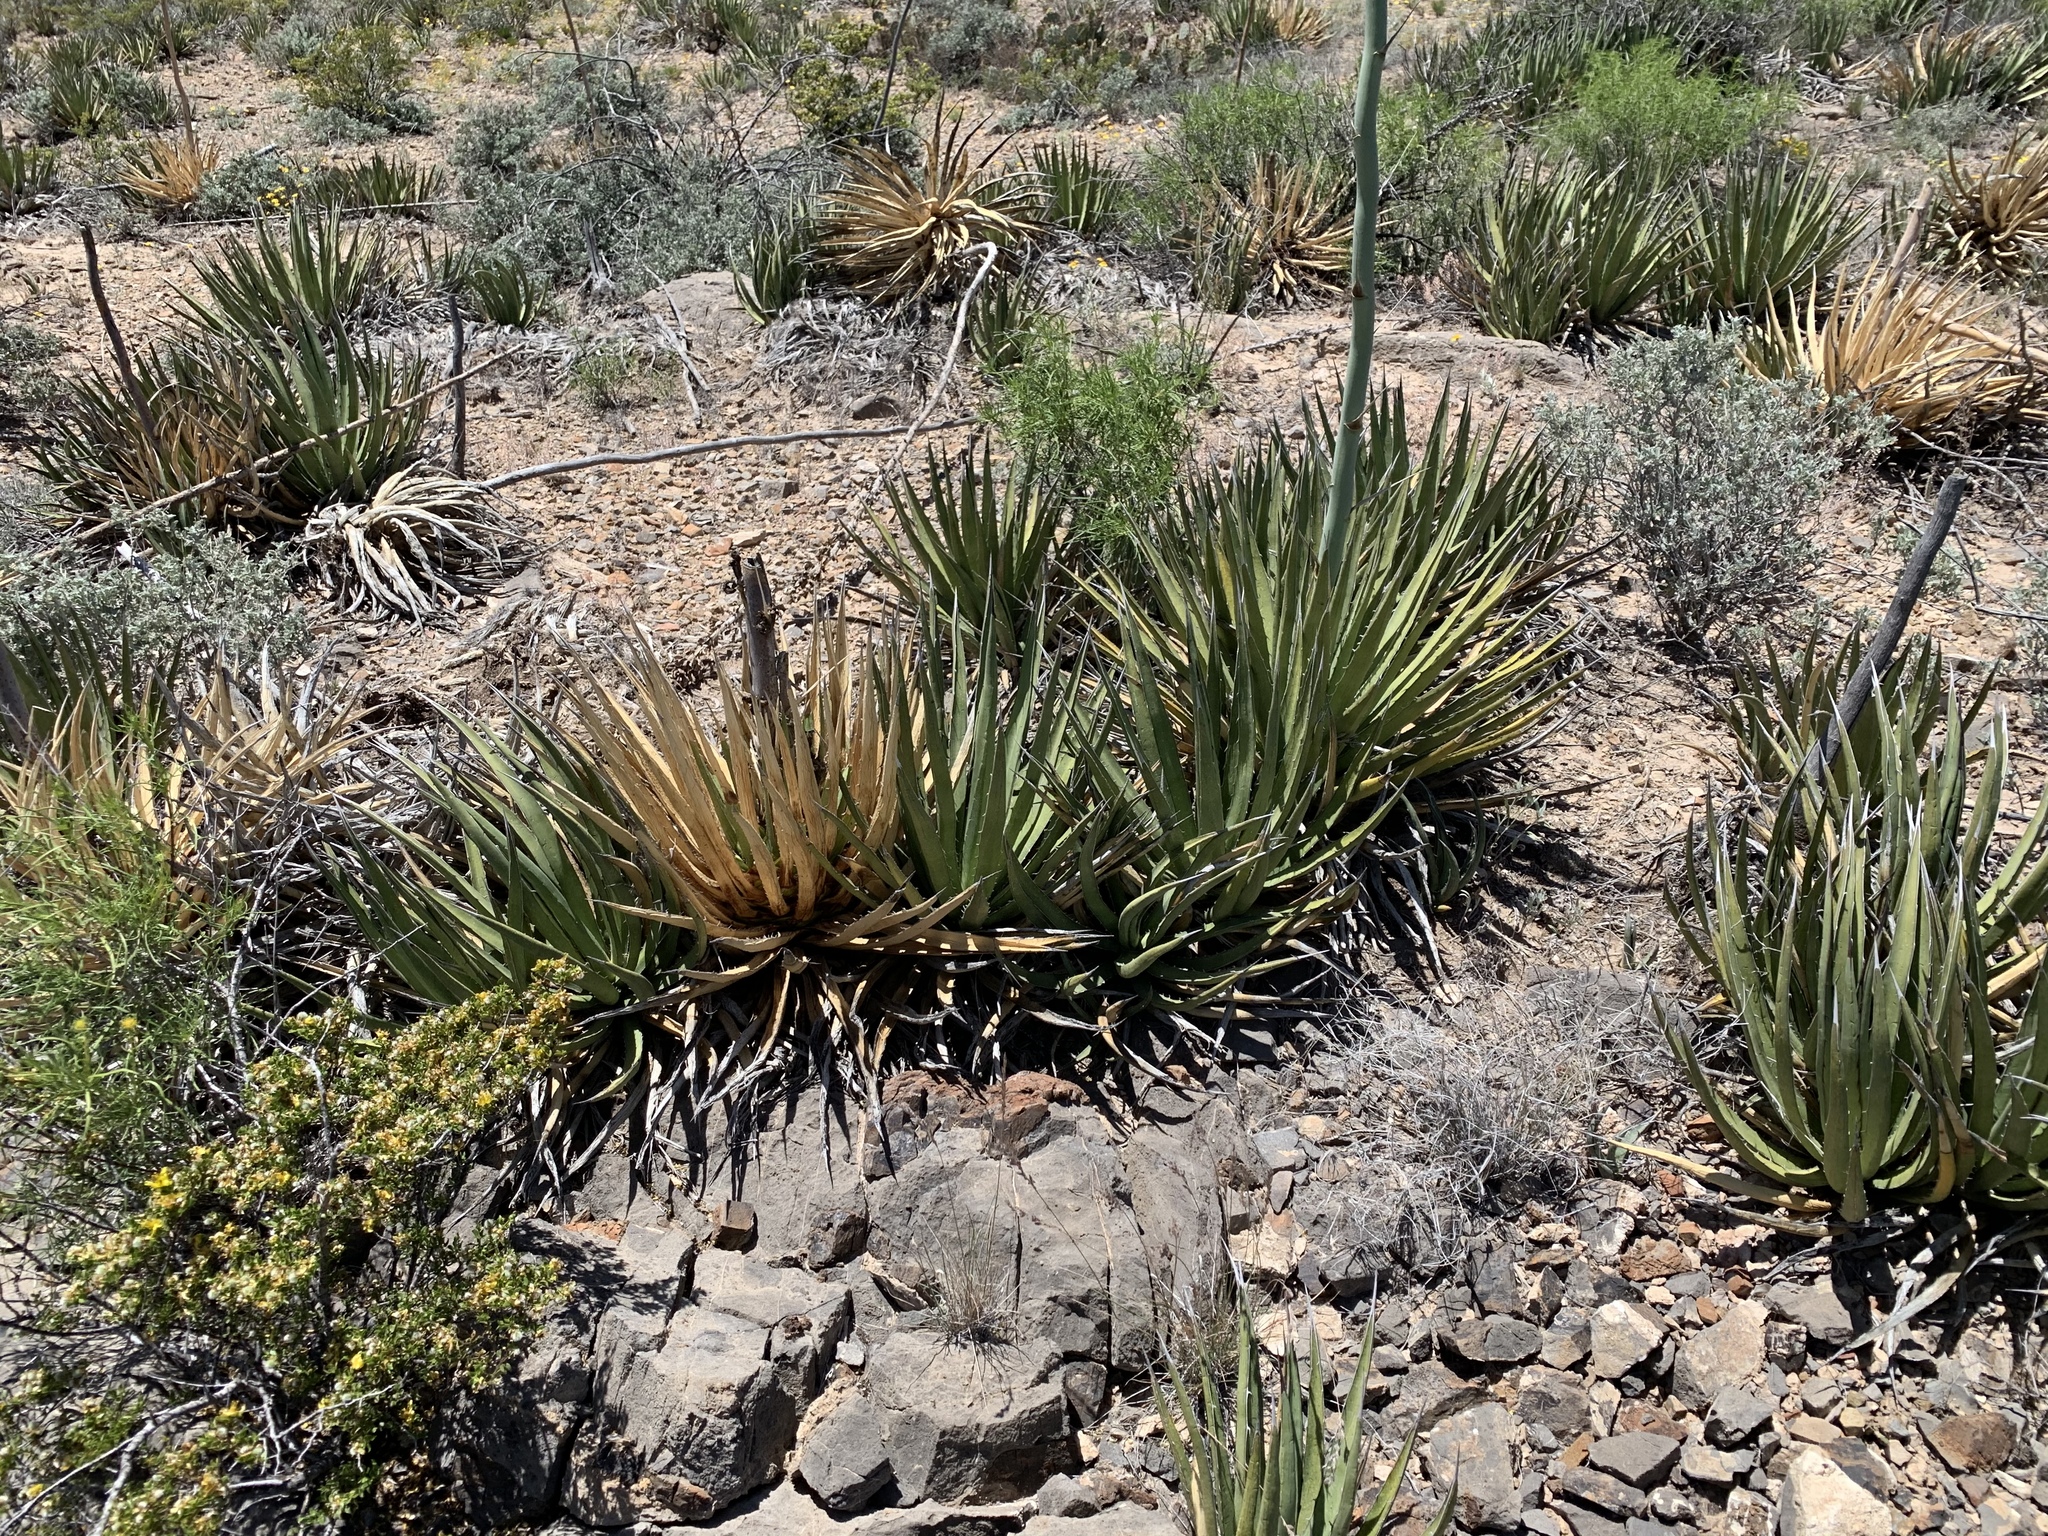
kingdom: Plantae
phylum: Tracheophyta
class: Liliopsida
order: Asparagales
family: Asparagaceae
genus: Agave
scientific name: Agave lechuguilla
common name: Lecheguilla agave
